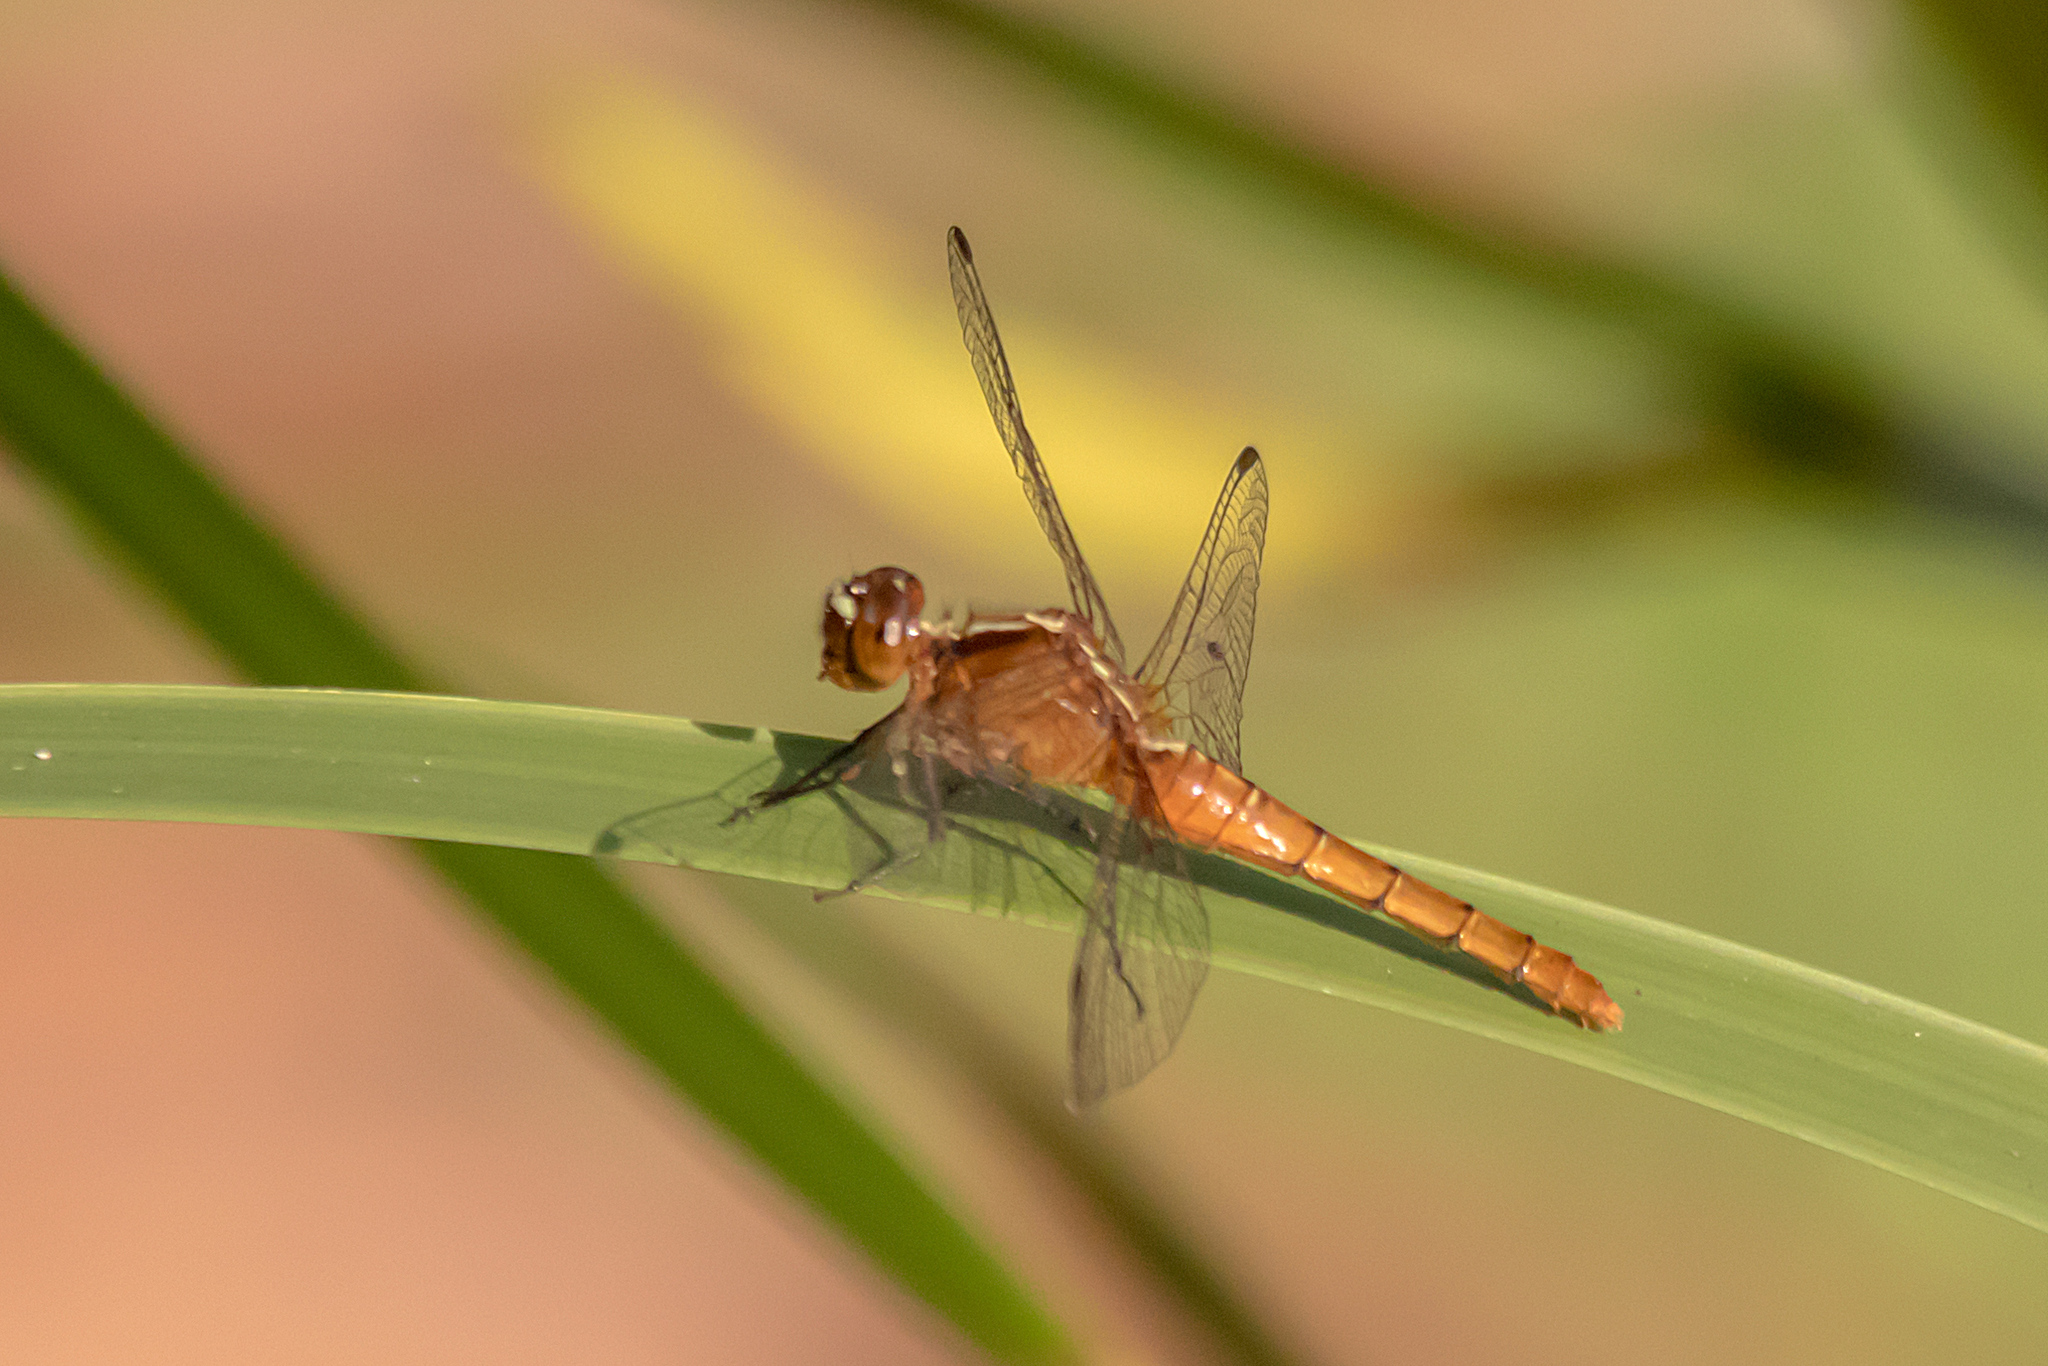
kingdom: Animalia
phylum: Arthropoda
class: Insecta
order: Odonata
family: Libellulidae
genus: Rhodothemis
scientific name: Rhodothemis lieftincki
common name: Red arrow
